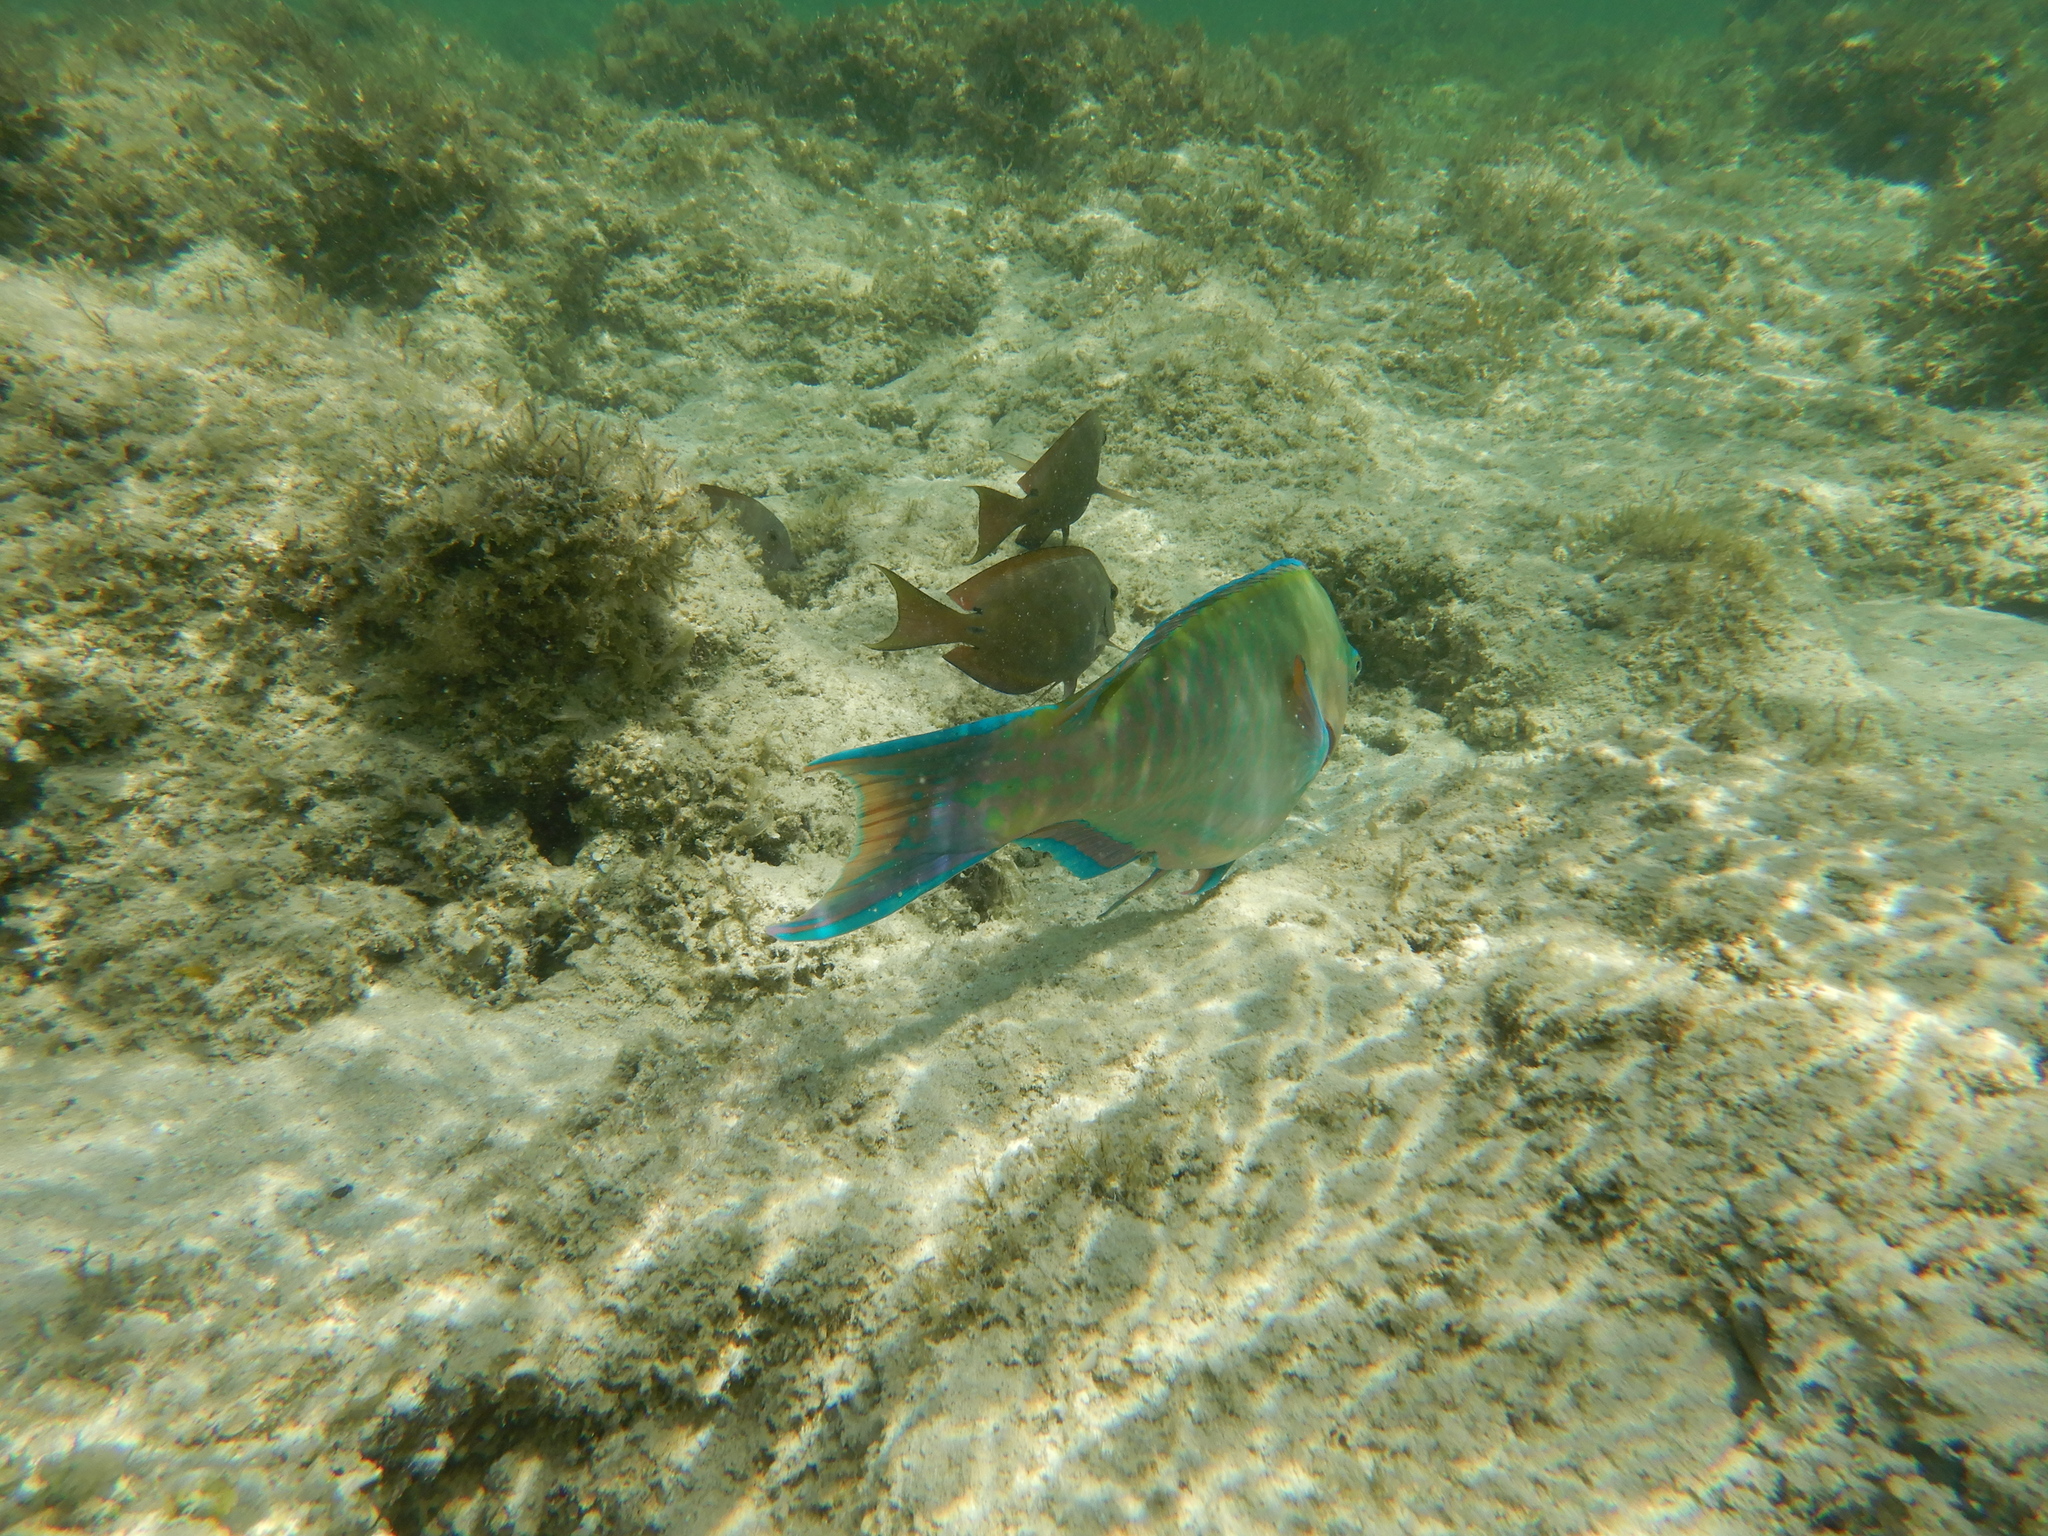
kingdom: Animalia
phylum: Chordata
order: Perciformes
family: Acanthuridae
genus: Ctenochaetus
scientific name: Ctenochaetus striatus
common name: Bristle-toothed surgeonfish
